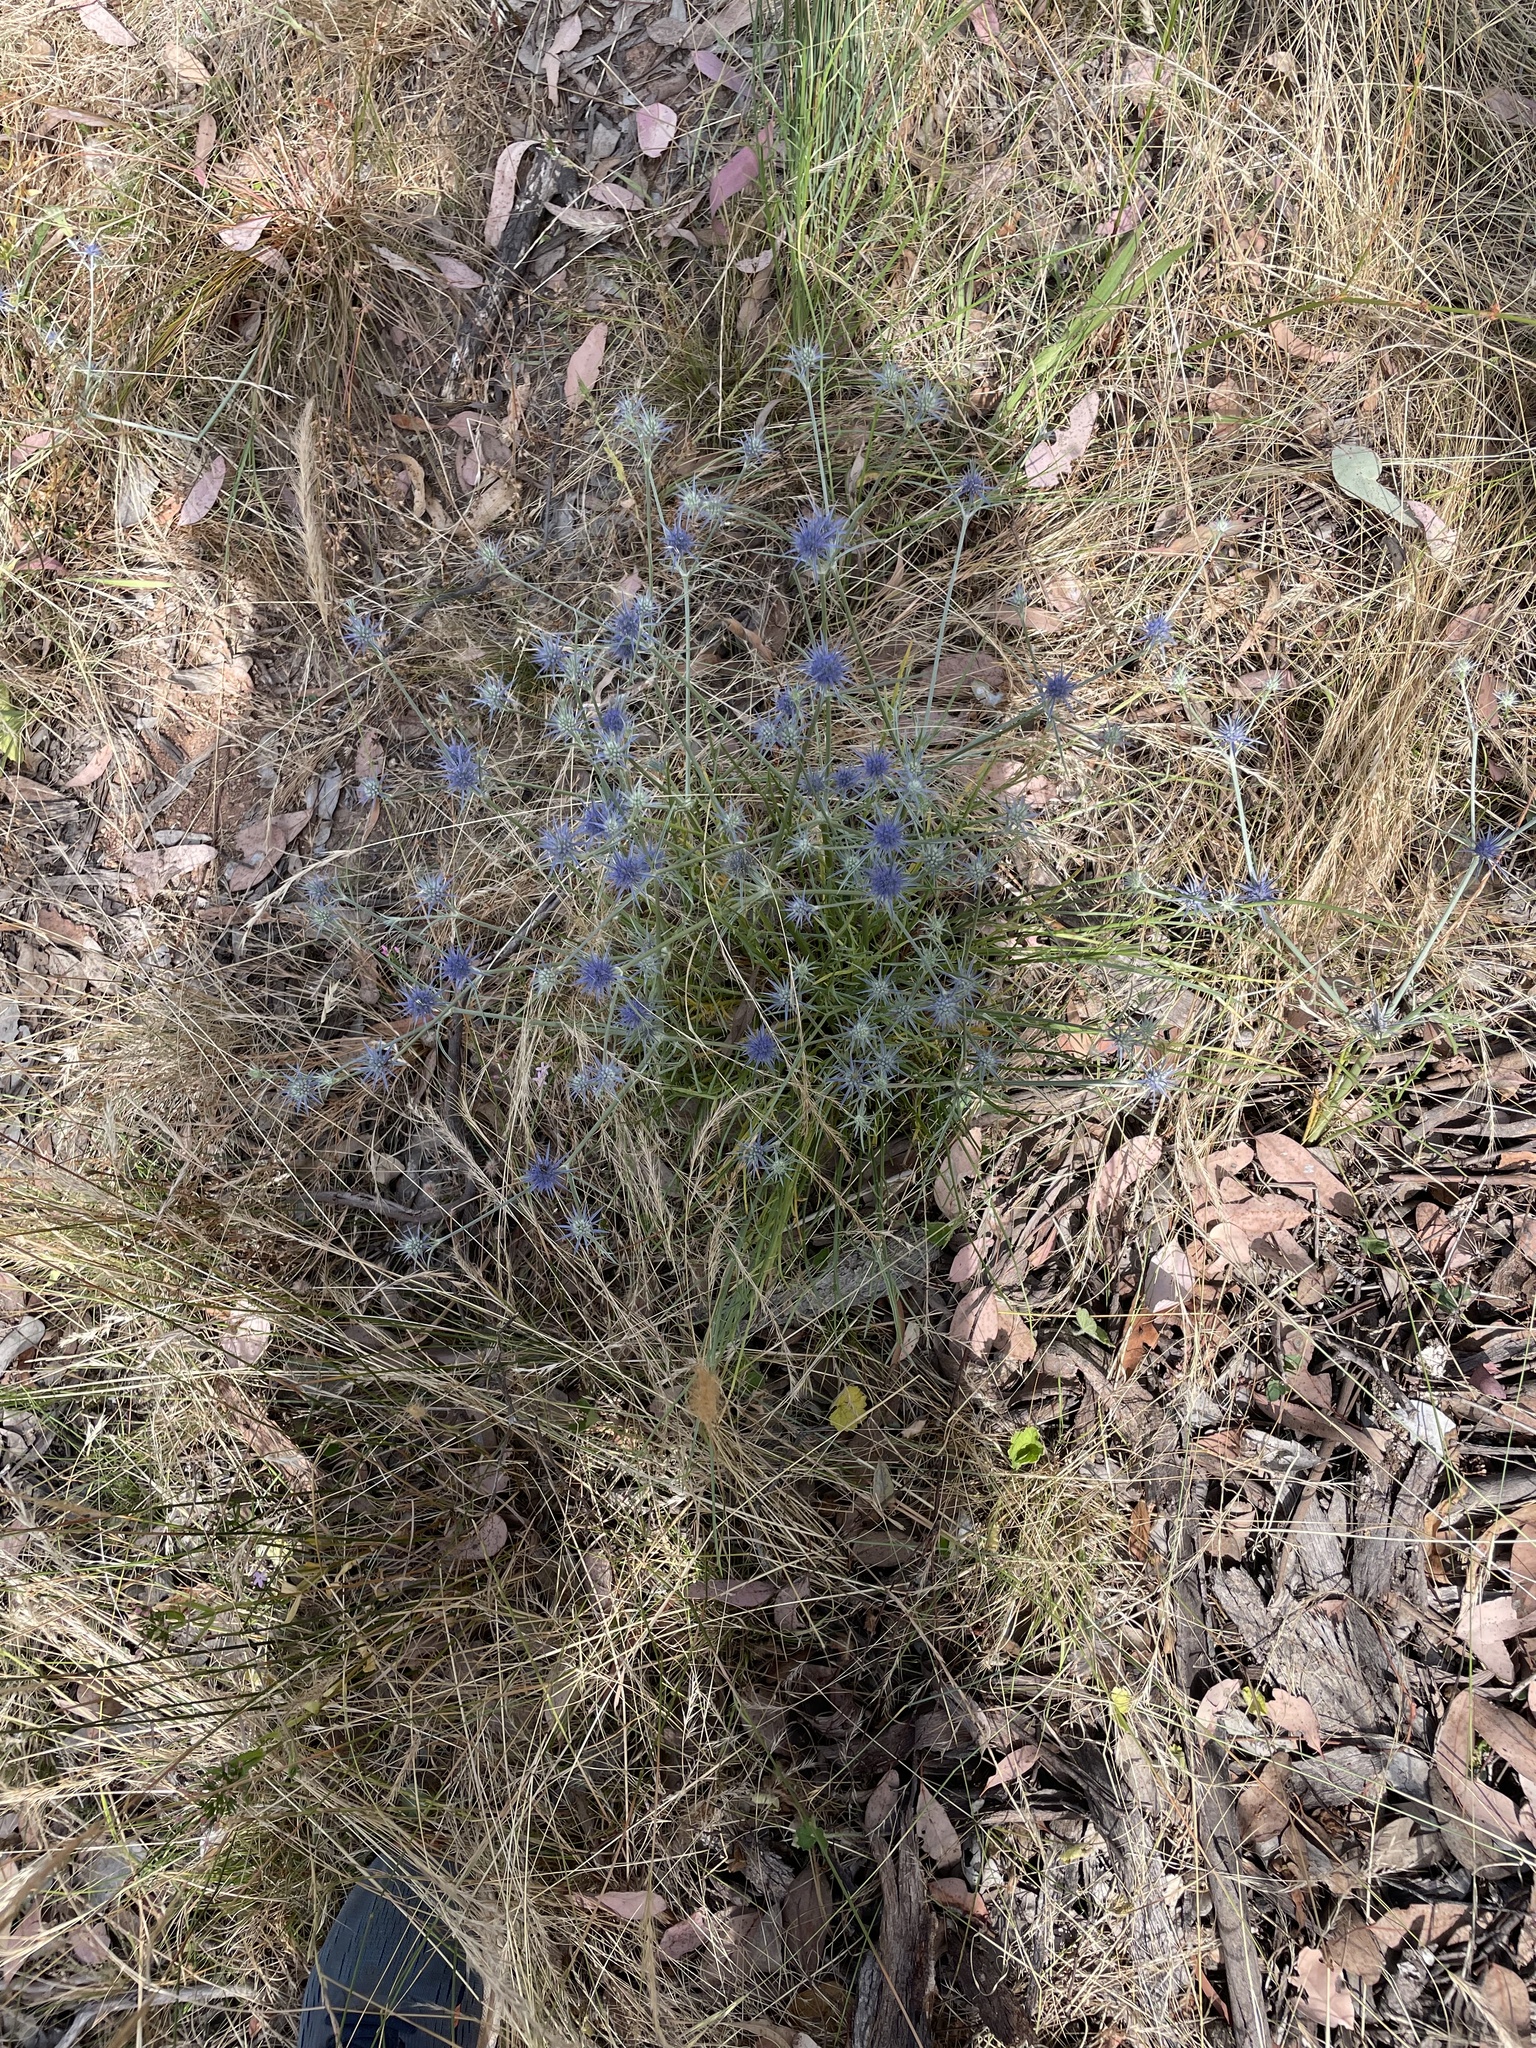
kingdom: Plantae
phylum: Tracheophyta
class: Magnoliopsida
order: Apiales
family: Apiaceae
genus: Eryngium
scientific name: Eryngium ovinum
